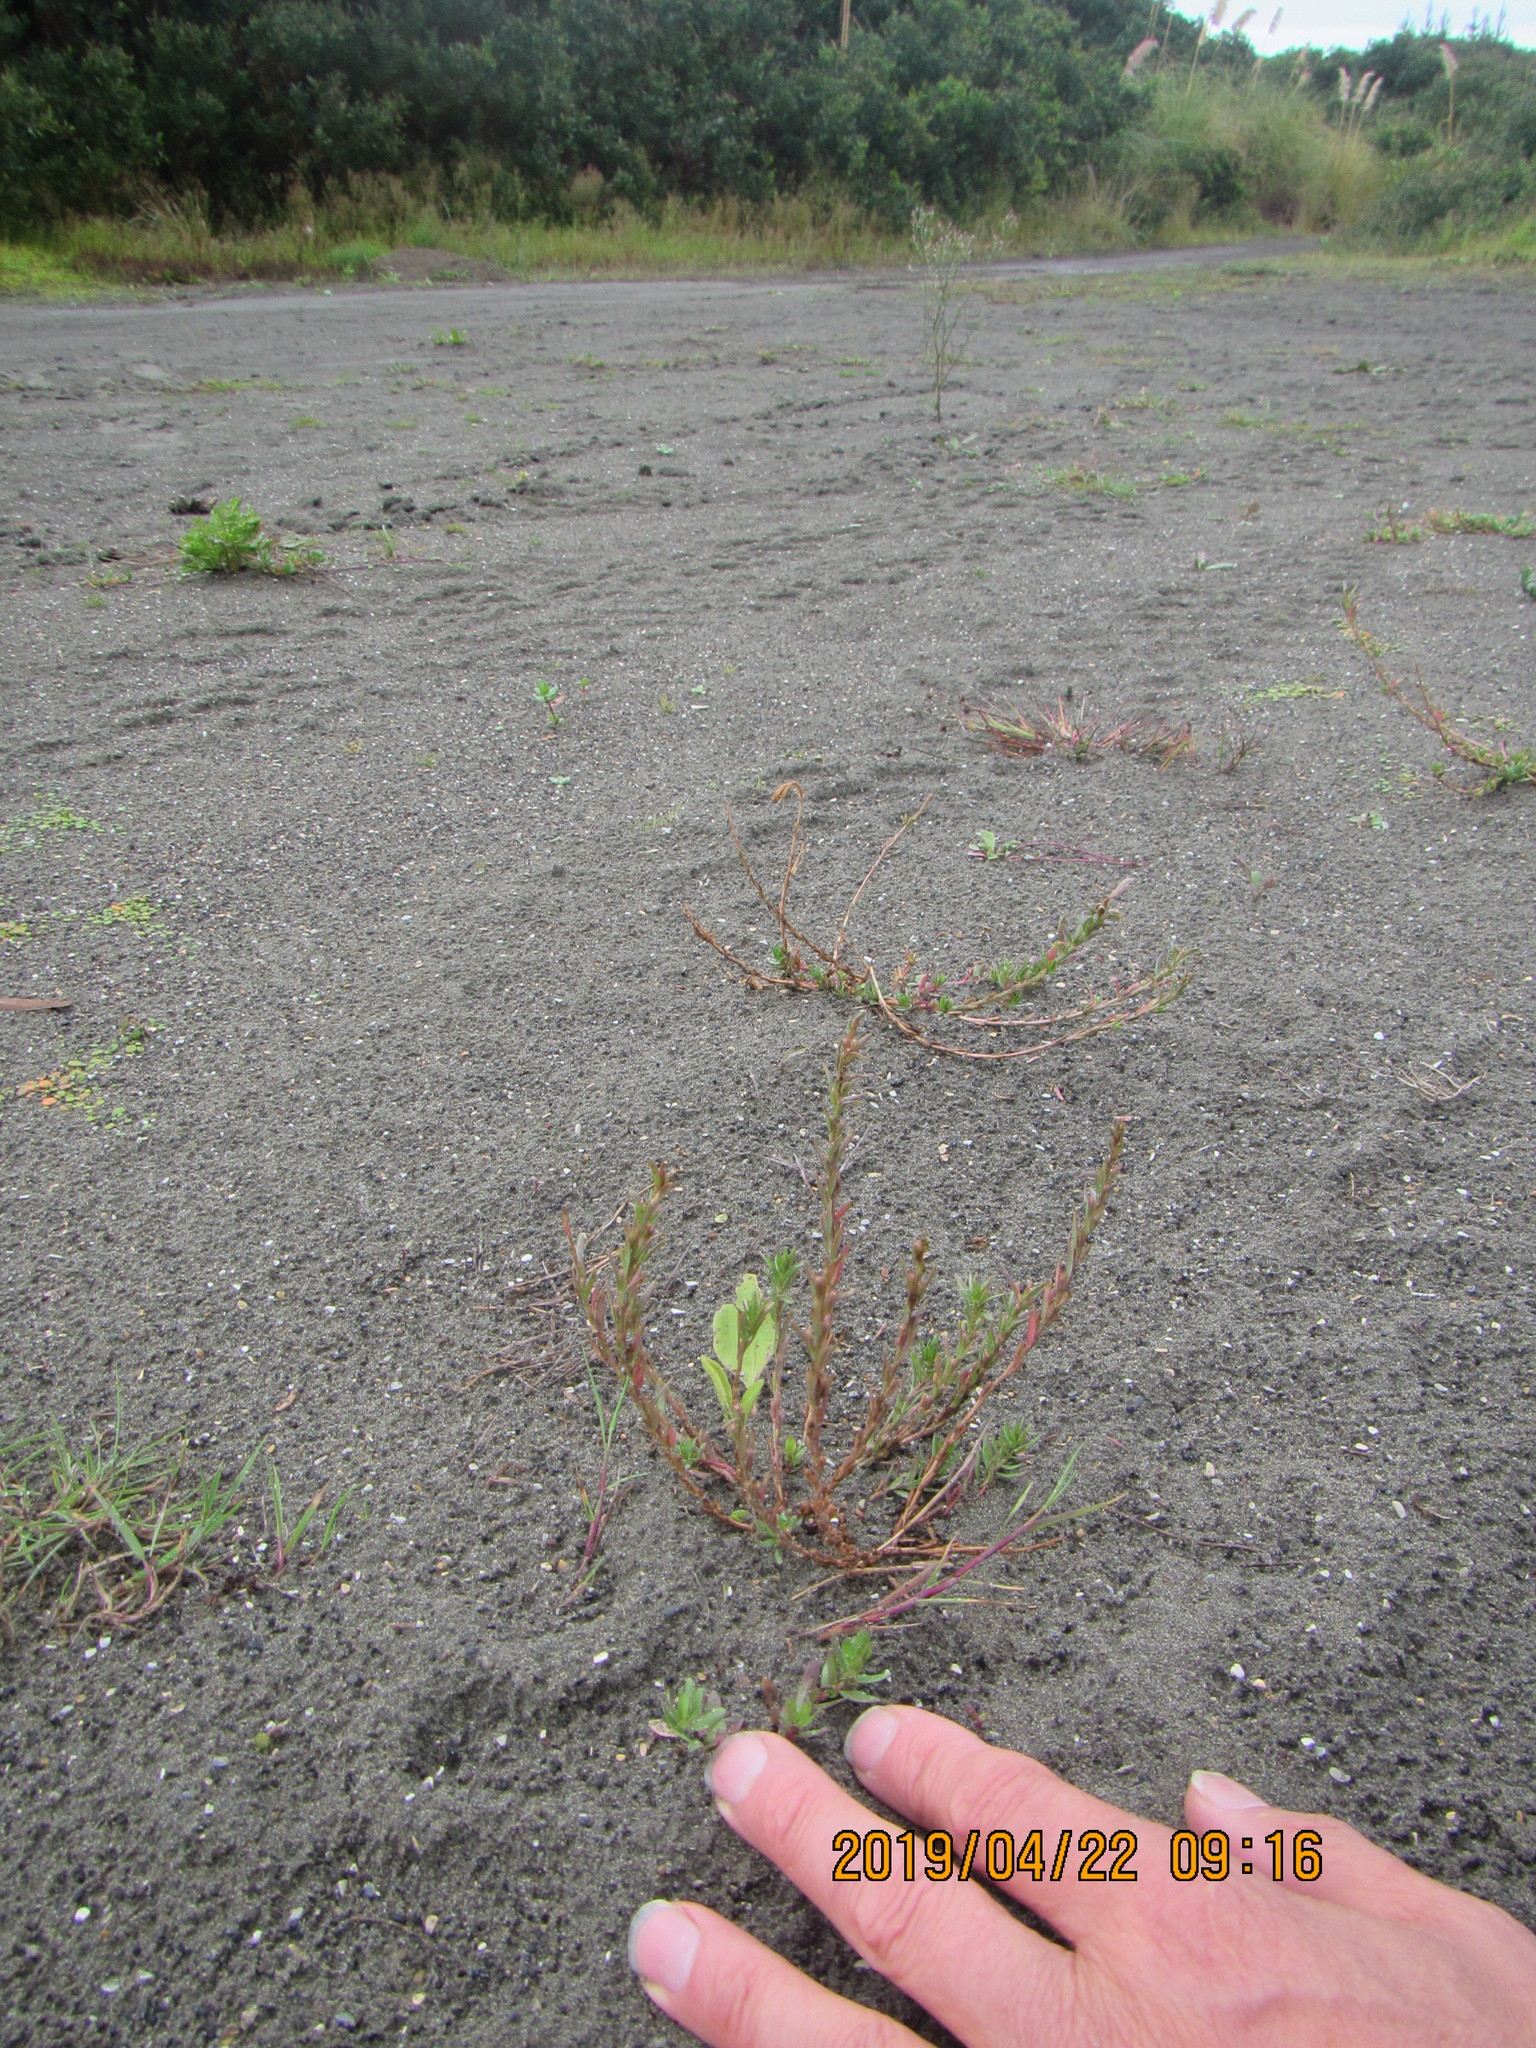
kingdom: Plantae
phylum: Tracheophyta
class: Magnoliopsida
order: Gentianales
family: Rubiaceae
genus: Coprosma
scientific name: Coprosma acerosa
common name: Sand coprosma
